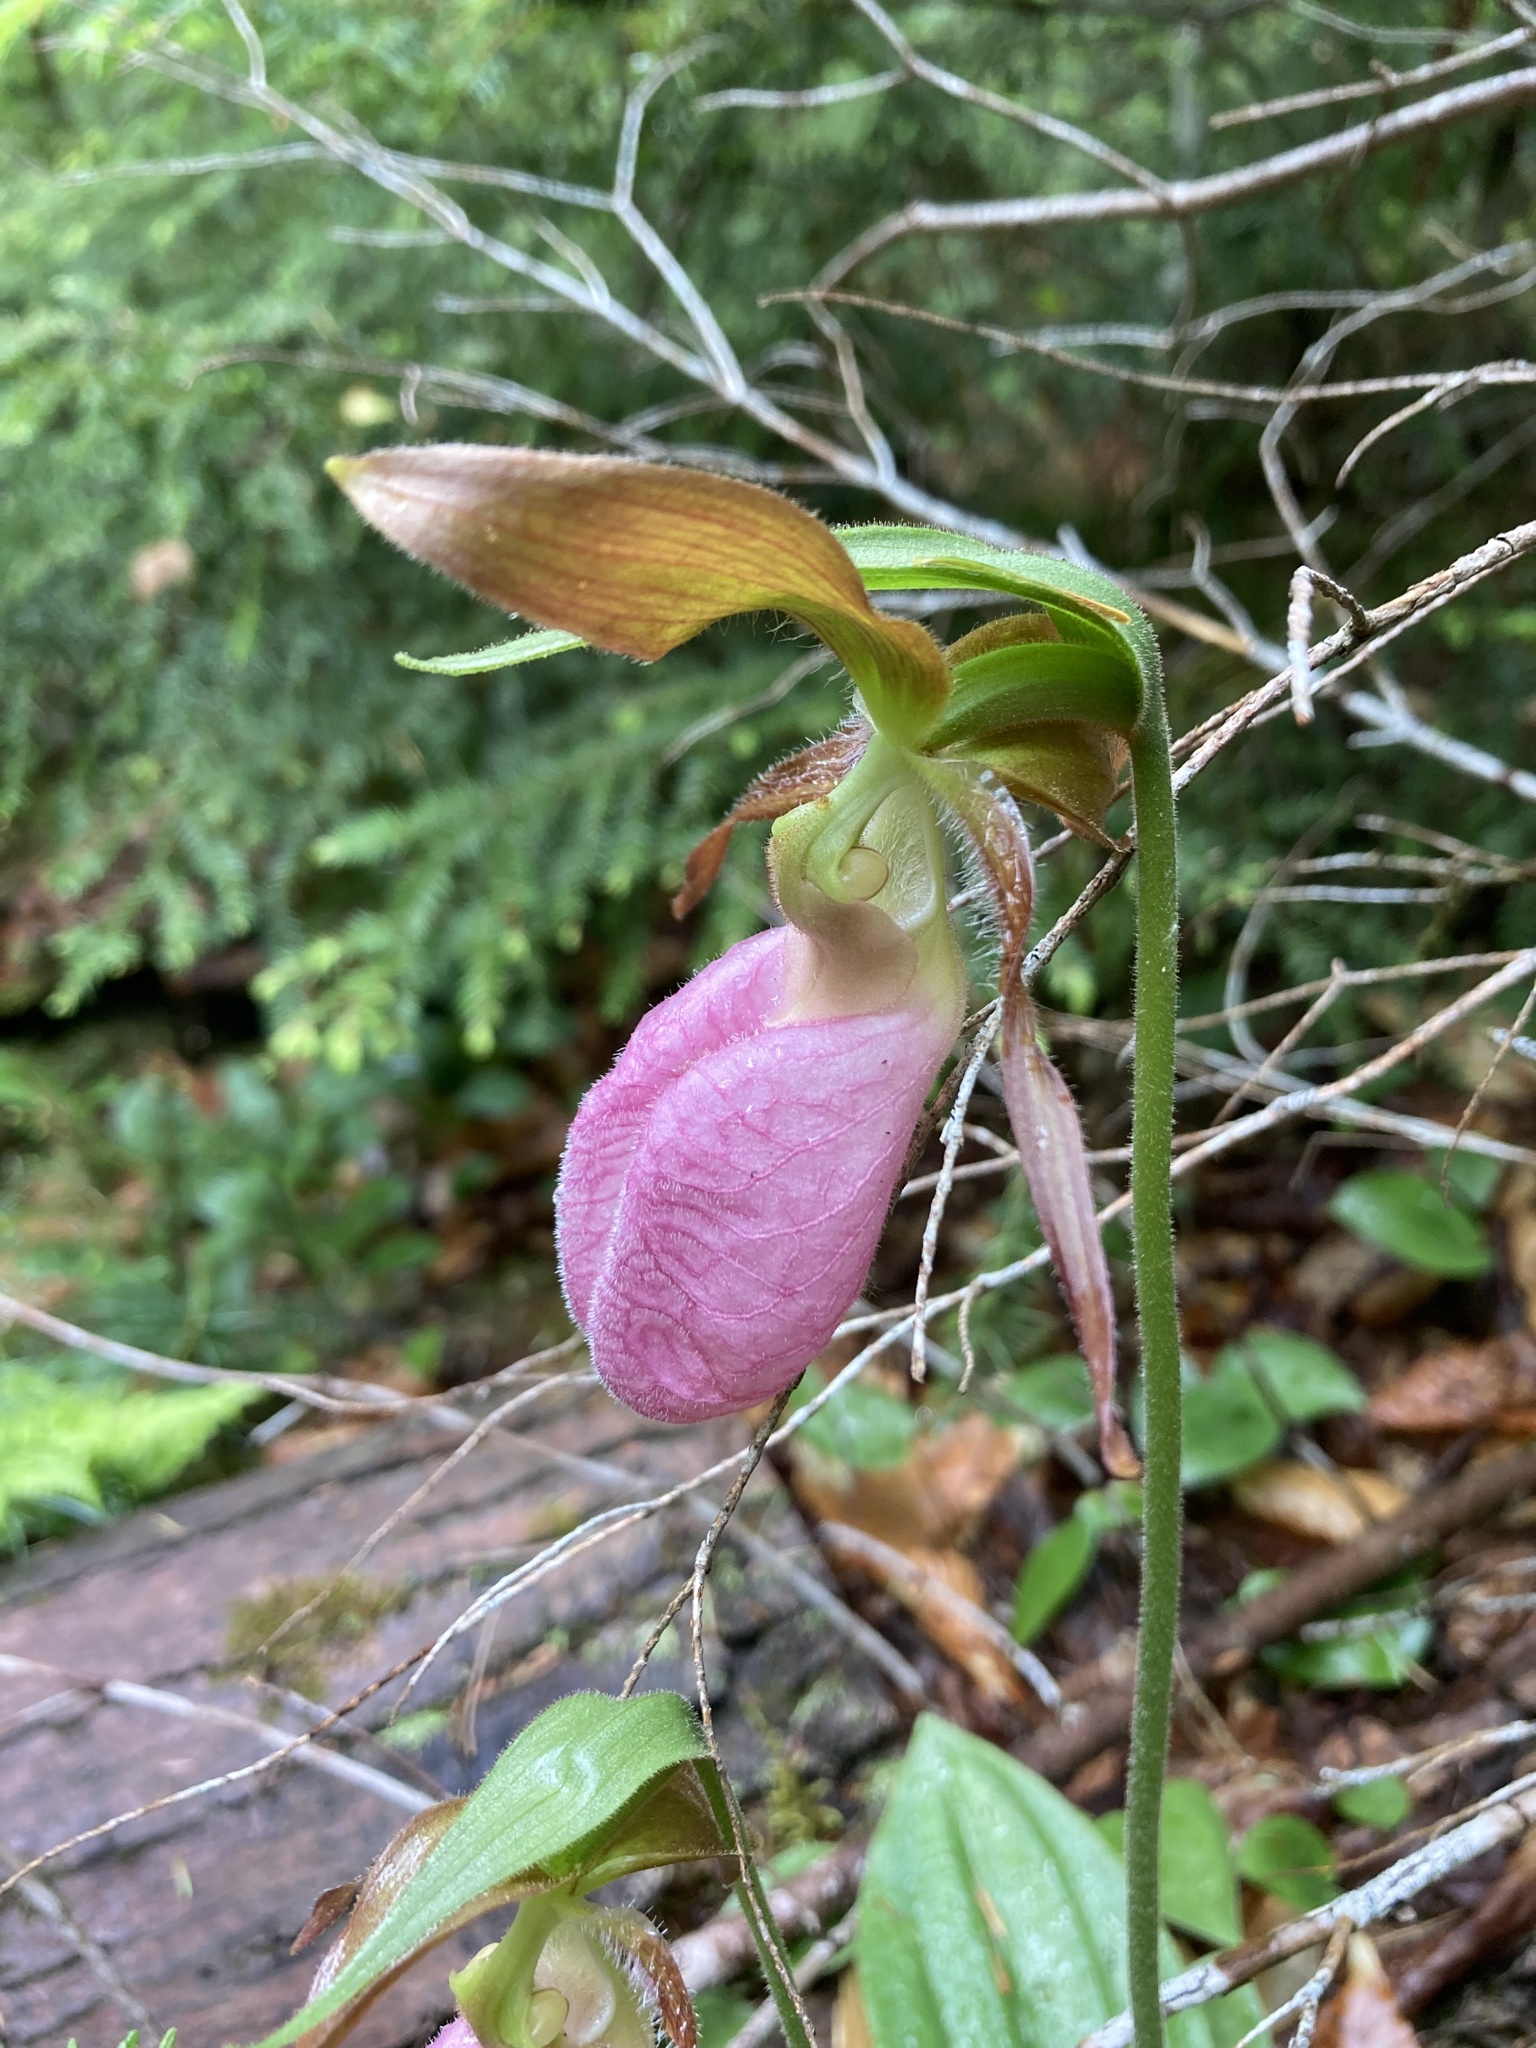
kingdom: Plantae
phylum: Tracheophyta
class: Liliopsida
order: Asparagales
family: Orchidaceae
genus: Cypripedium
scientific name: Cypripedium acaule
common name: Pink lady's-slipper
